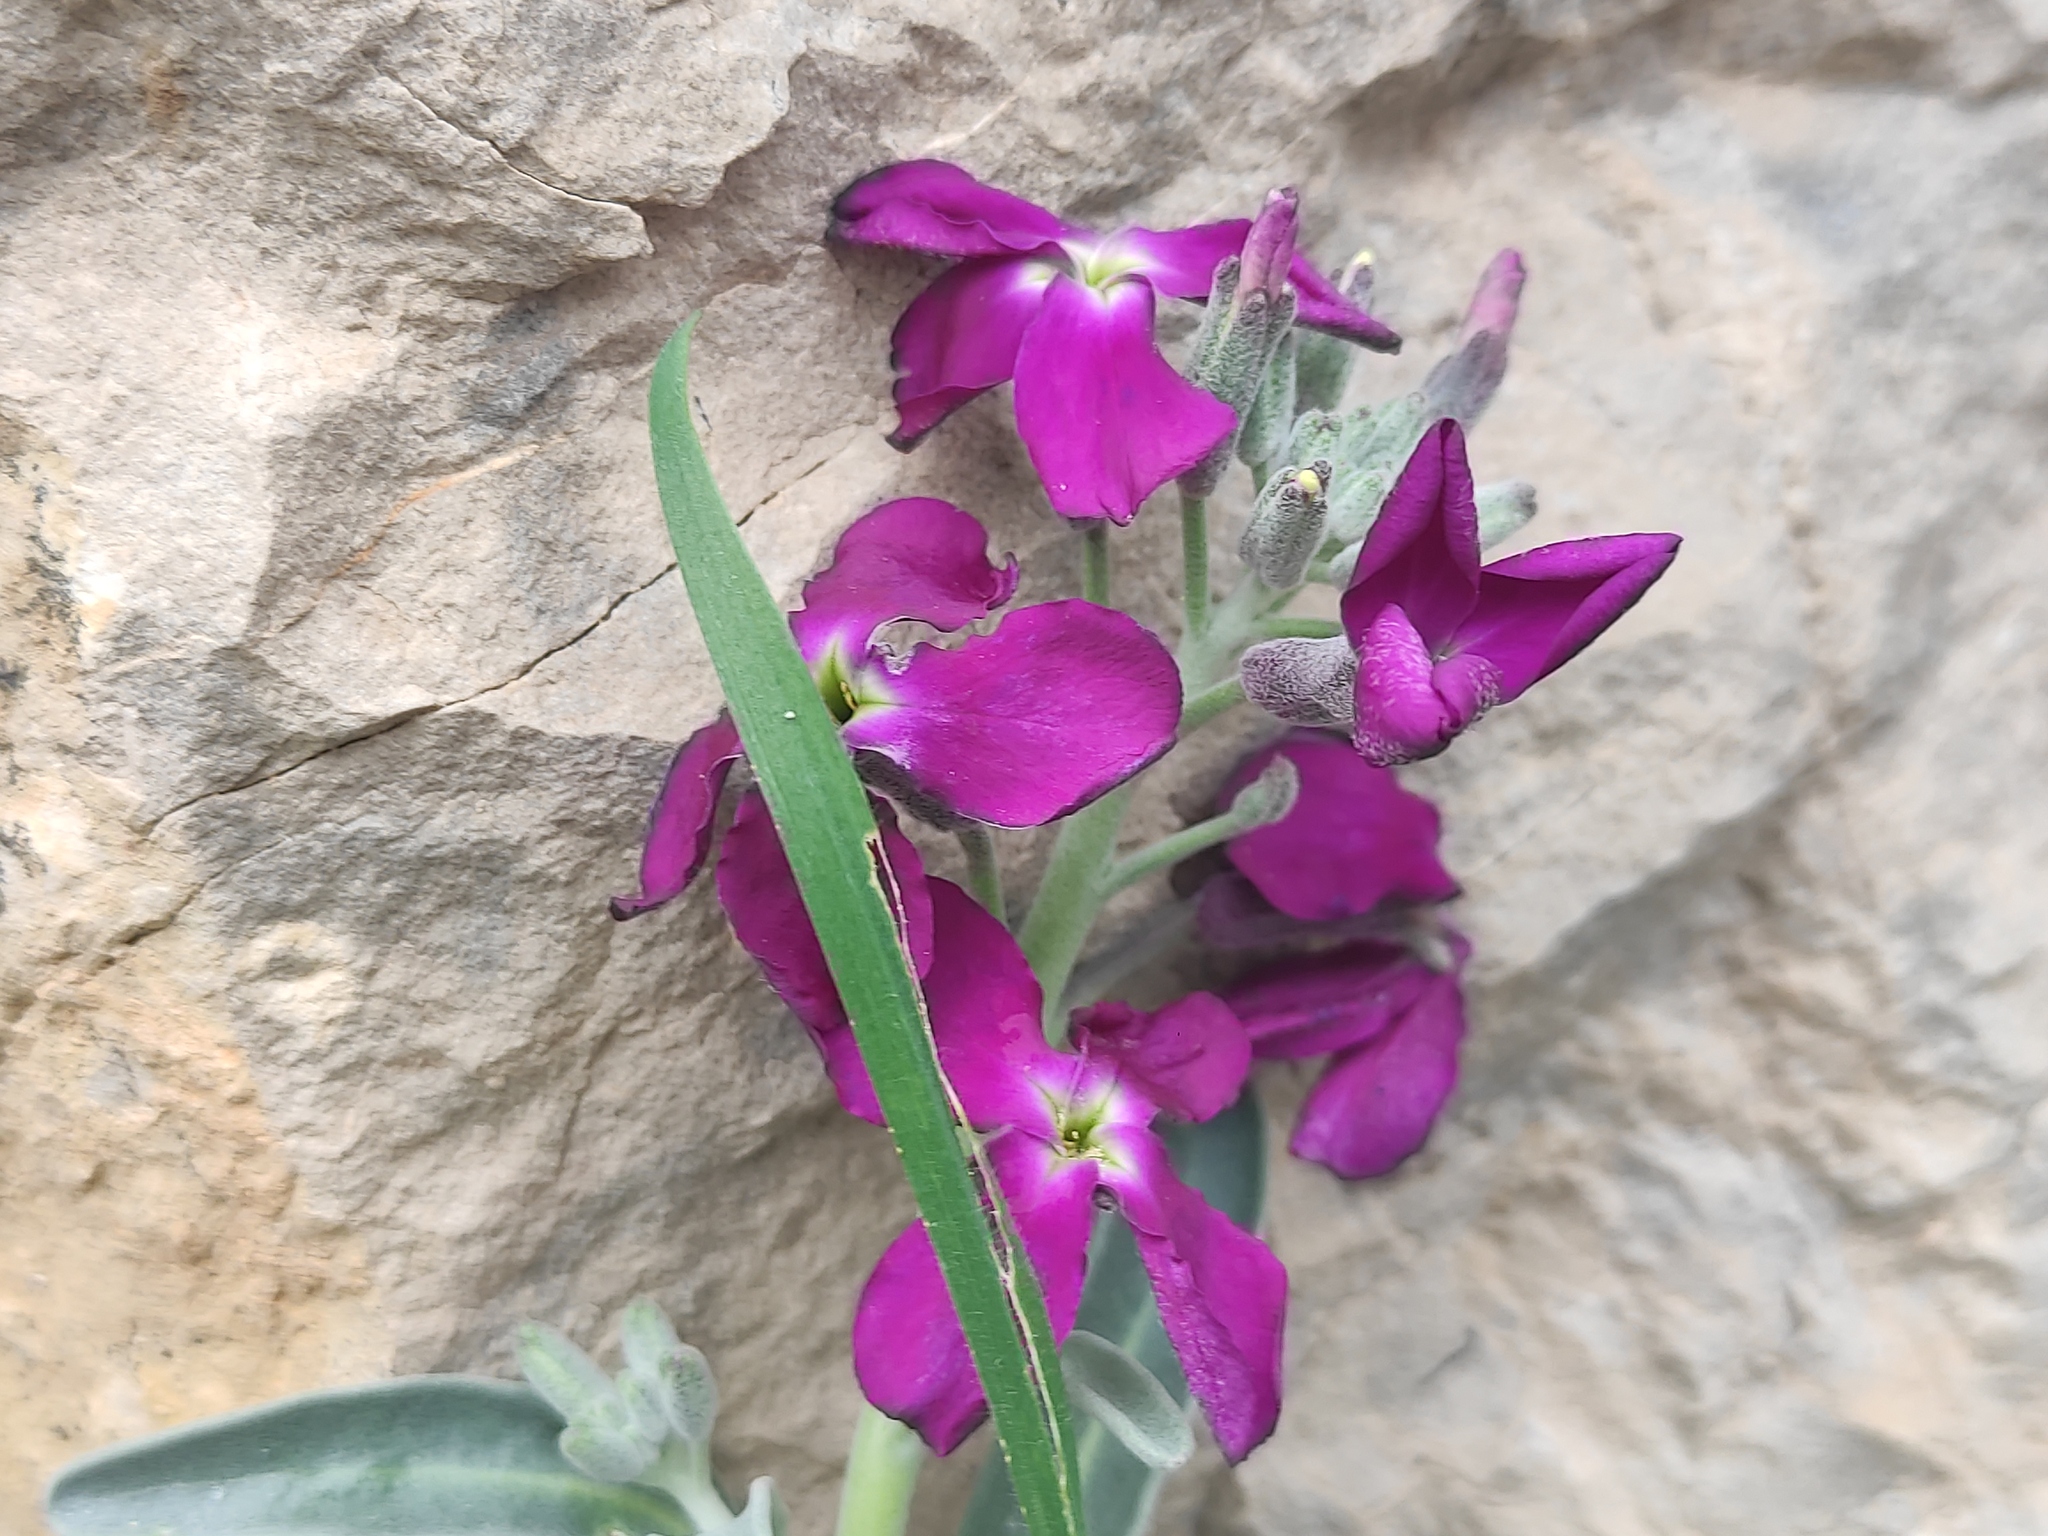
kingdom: Plantae
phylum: Tracheophyta
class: Magnoliopsida
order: Brassicales
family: Brassicaceae
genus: Matthiola
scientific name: Matthiola incana
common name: Hoary stock
